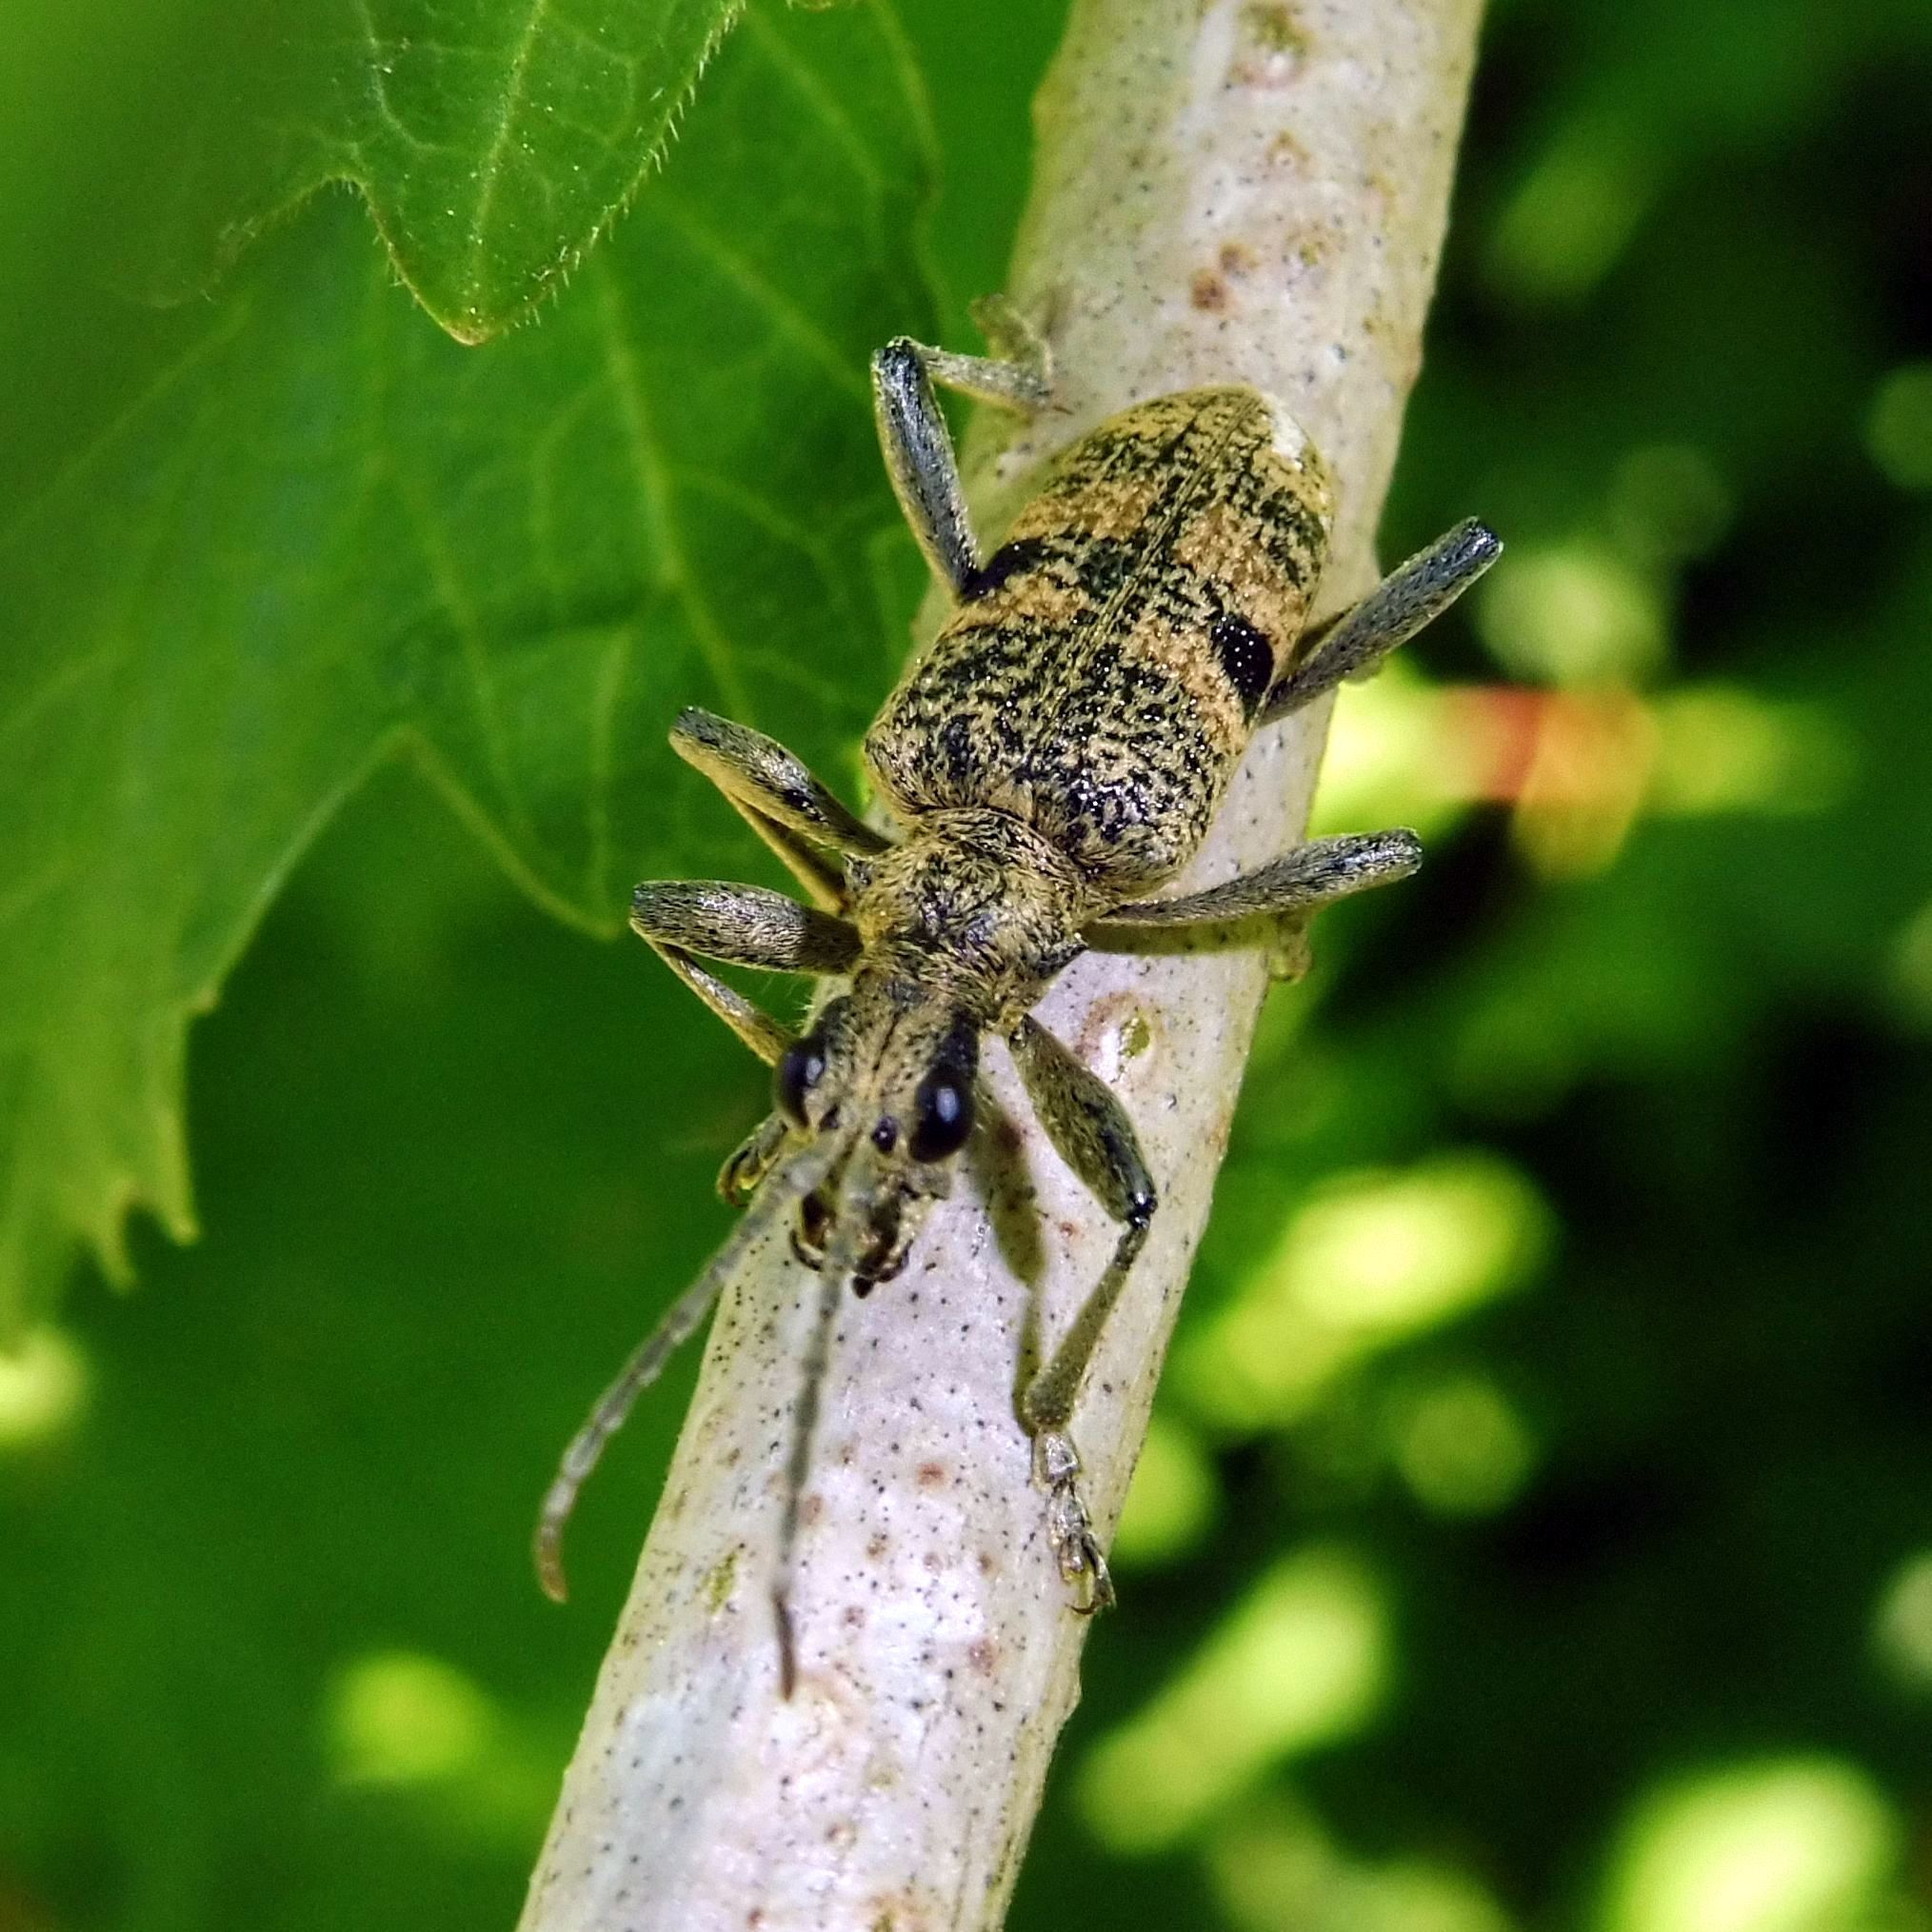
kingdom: Animalia
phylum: Arthropoda
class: Insecta
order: Coleoptera
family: Cerambycidae
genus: Rhagium
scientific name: Rhagium mordax
